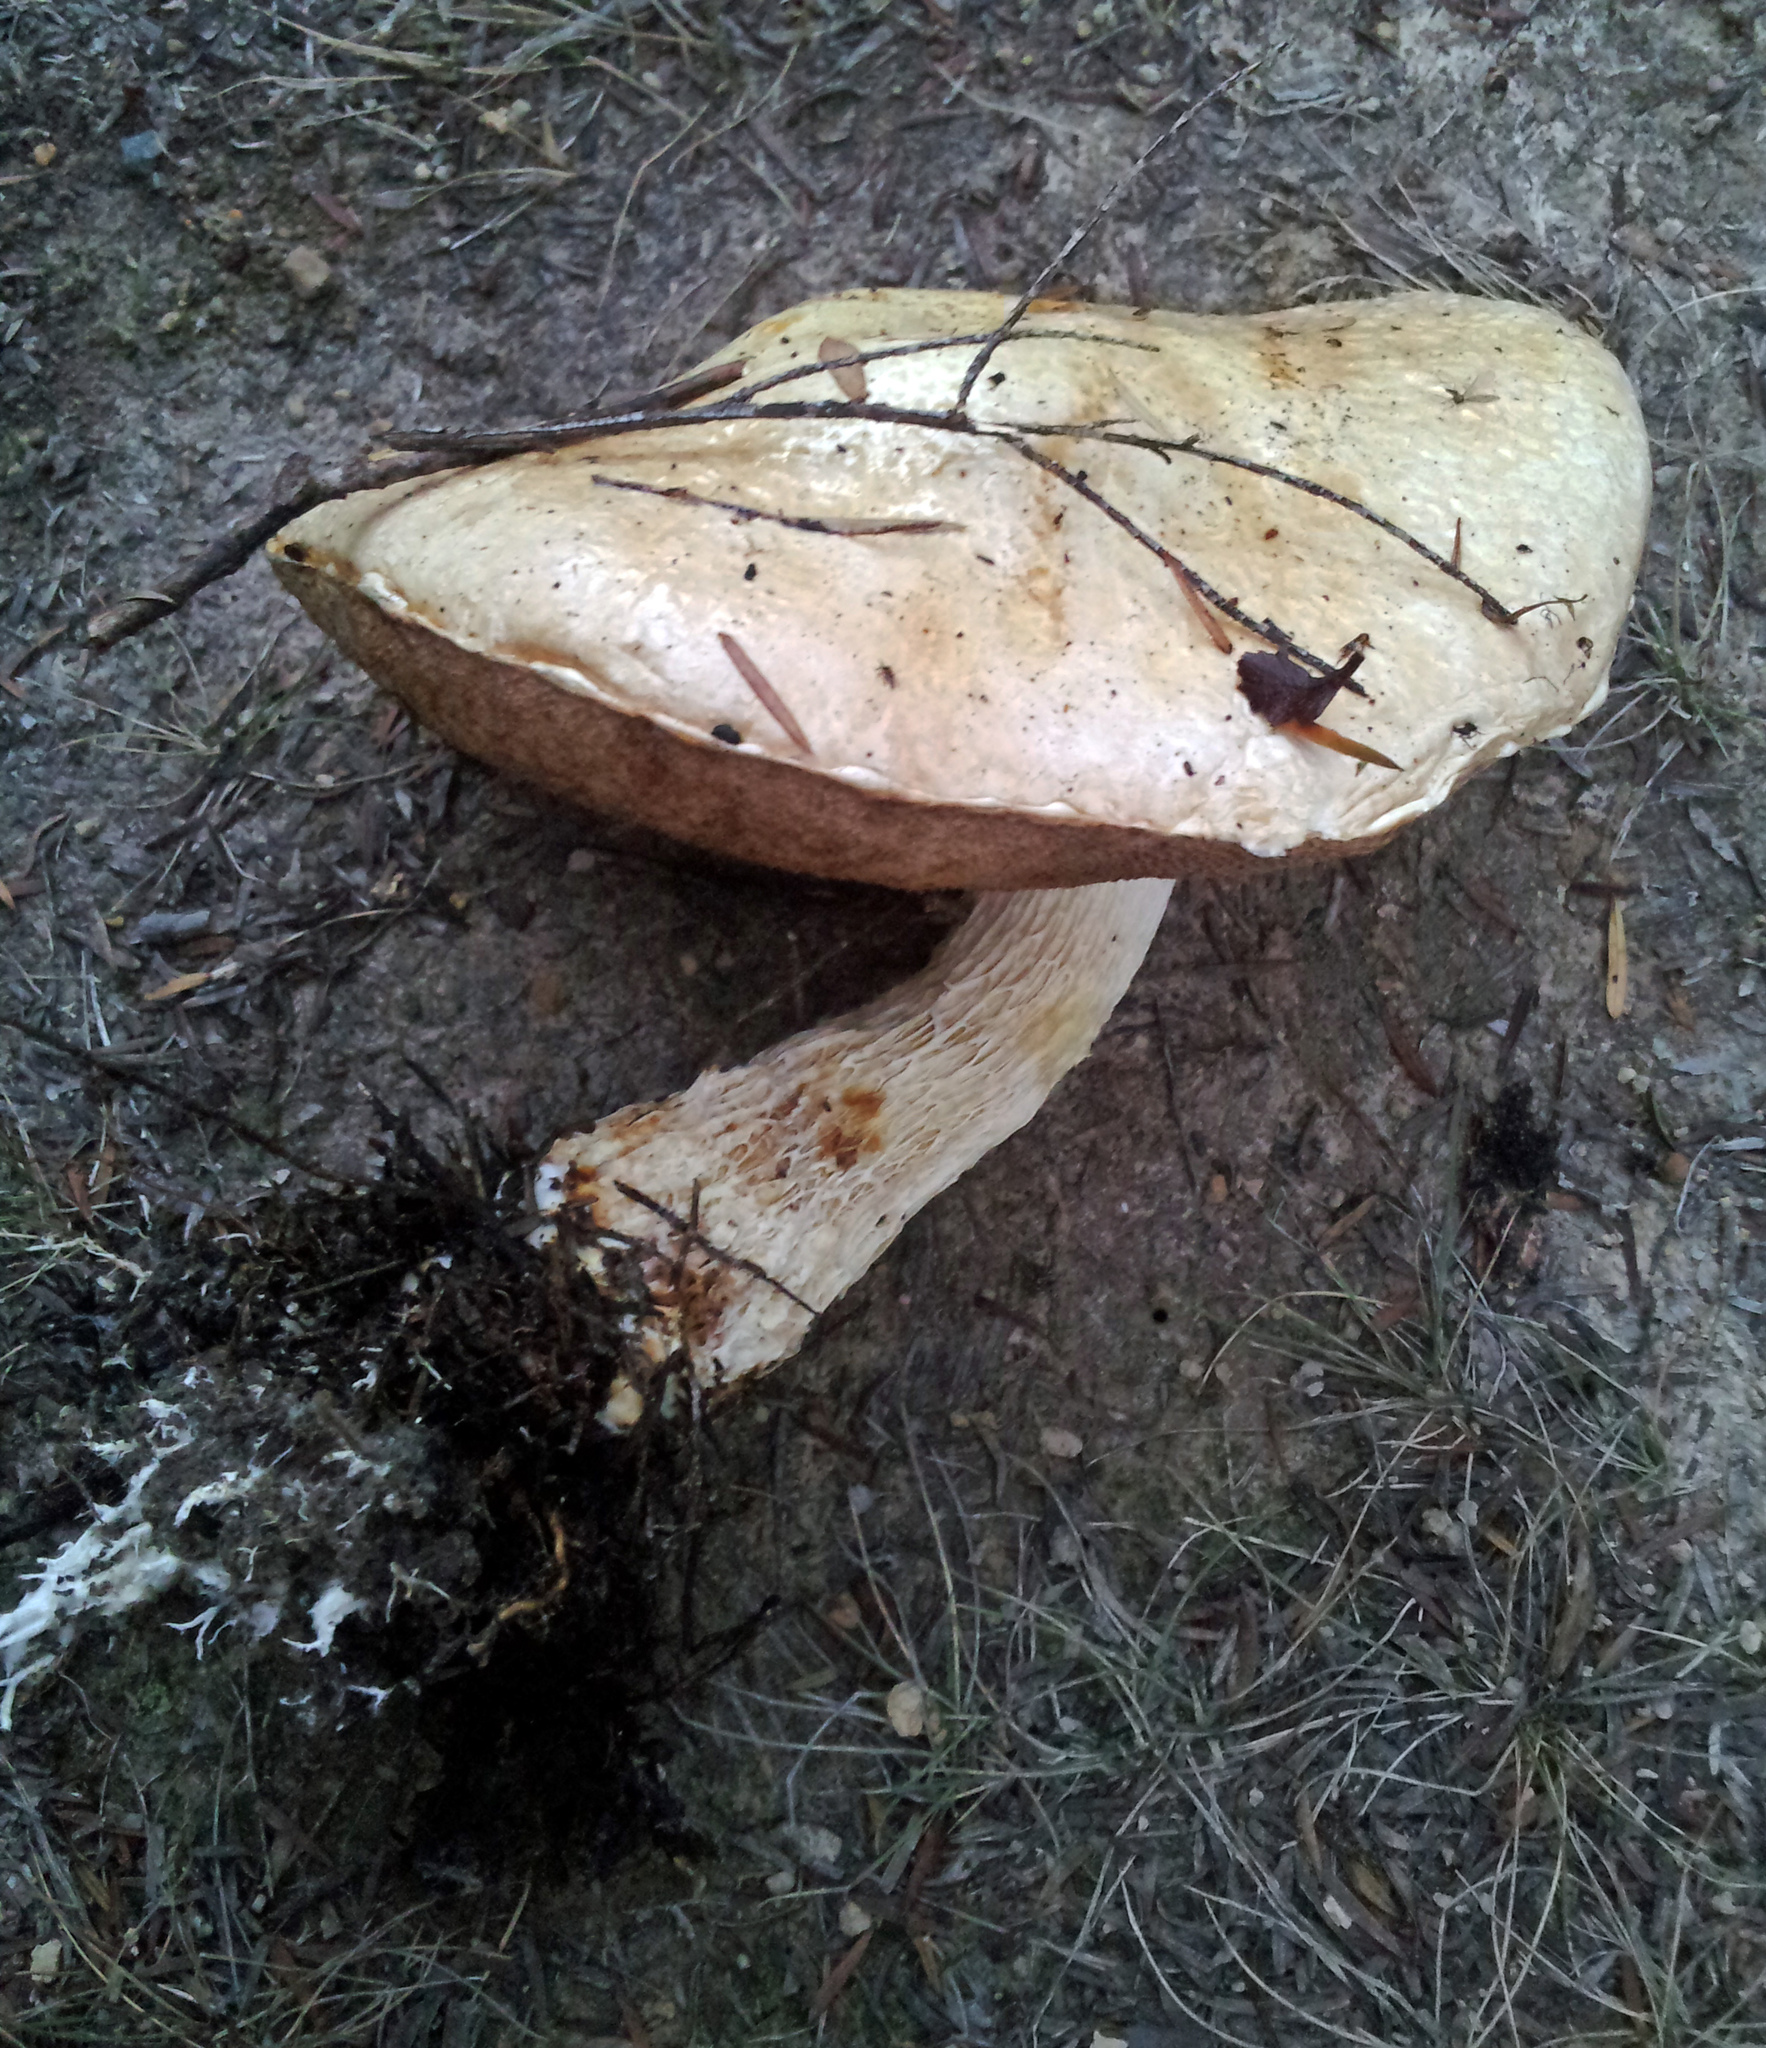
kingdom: Fungi
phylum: Basidiomycota
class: Agaricomycetes
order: Boletales
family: Boletaceae
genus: Fistulinella
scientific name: Fistulinella nivea
